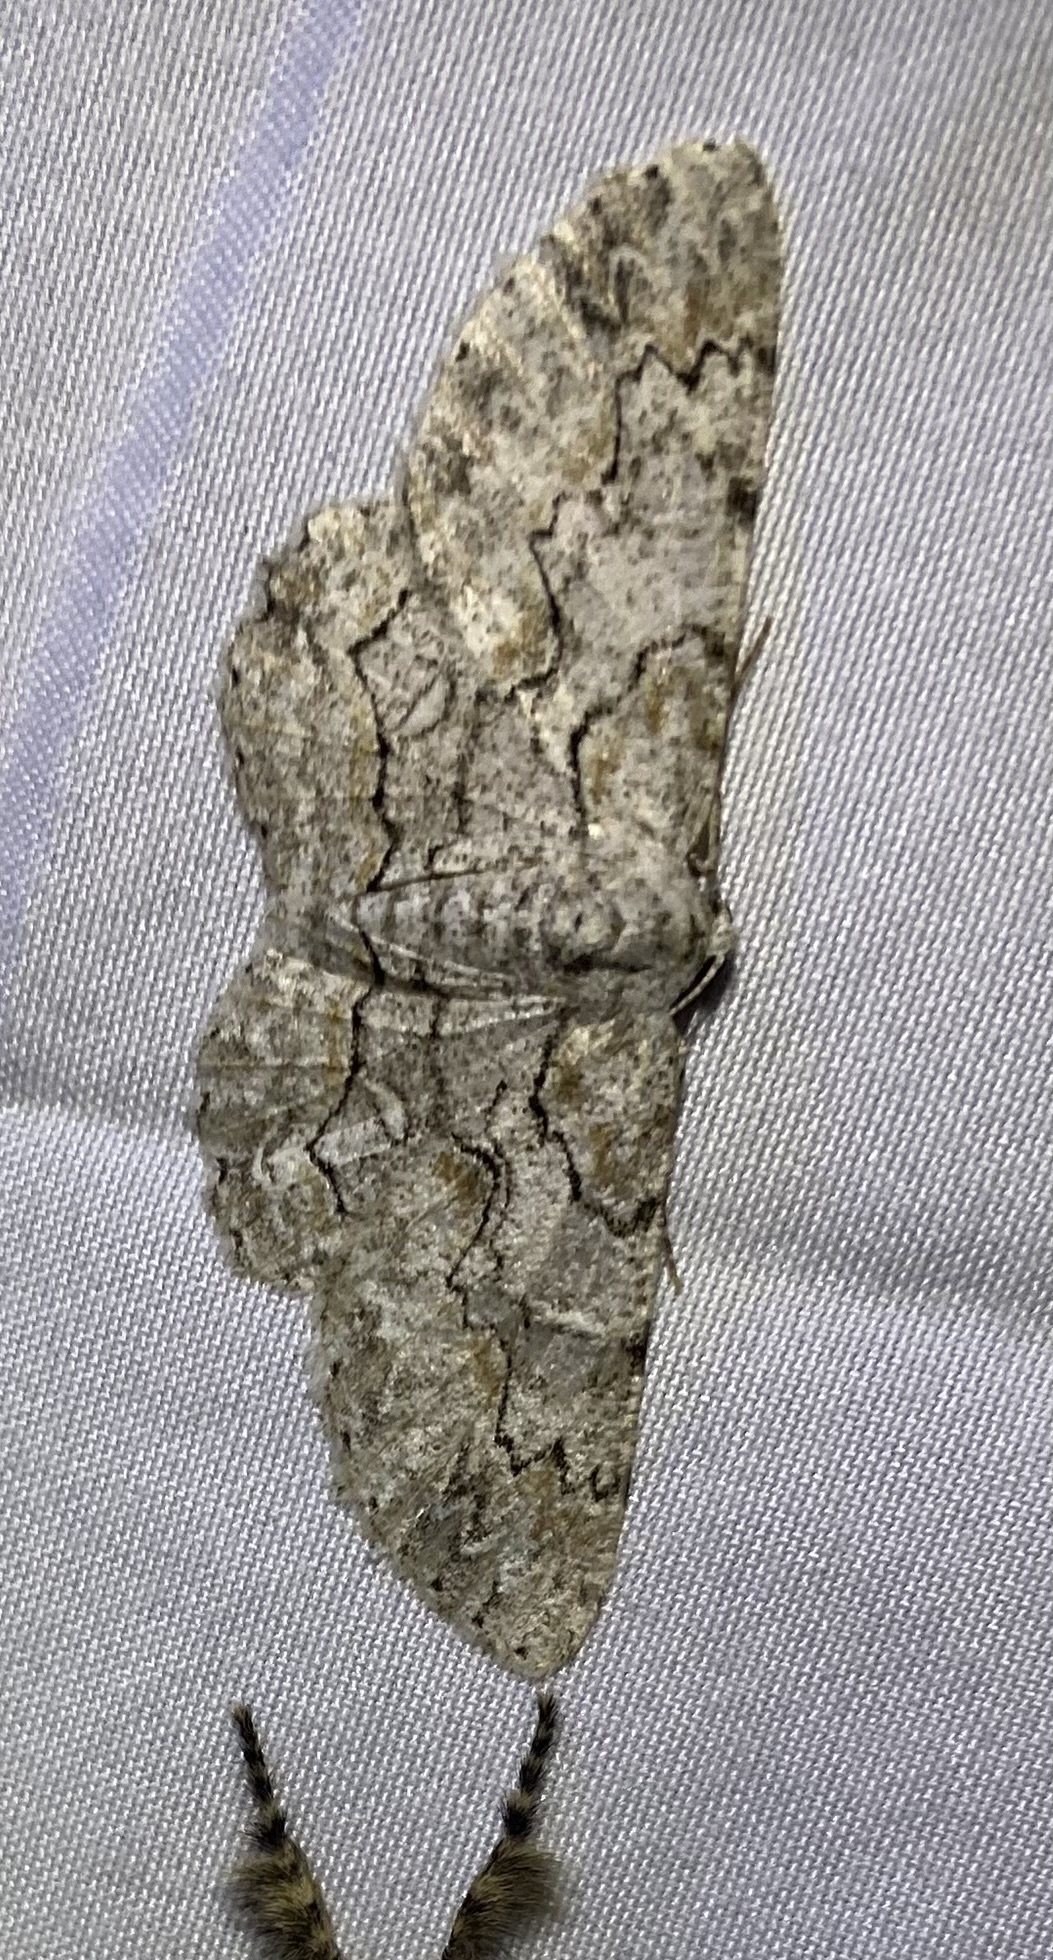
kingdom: Animalia
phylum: Arthropoda
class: Insecta
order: Lepidoptera
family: Geometridae
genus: Iridopsis
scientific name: Iridopsis defectaria
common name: Brown-shaded gray
